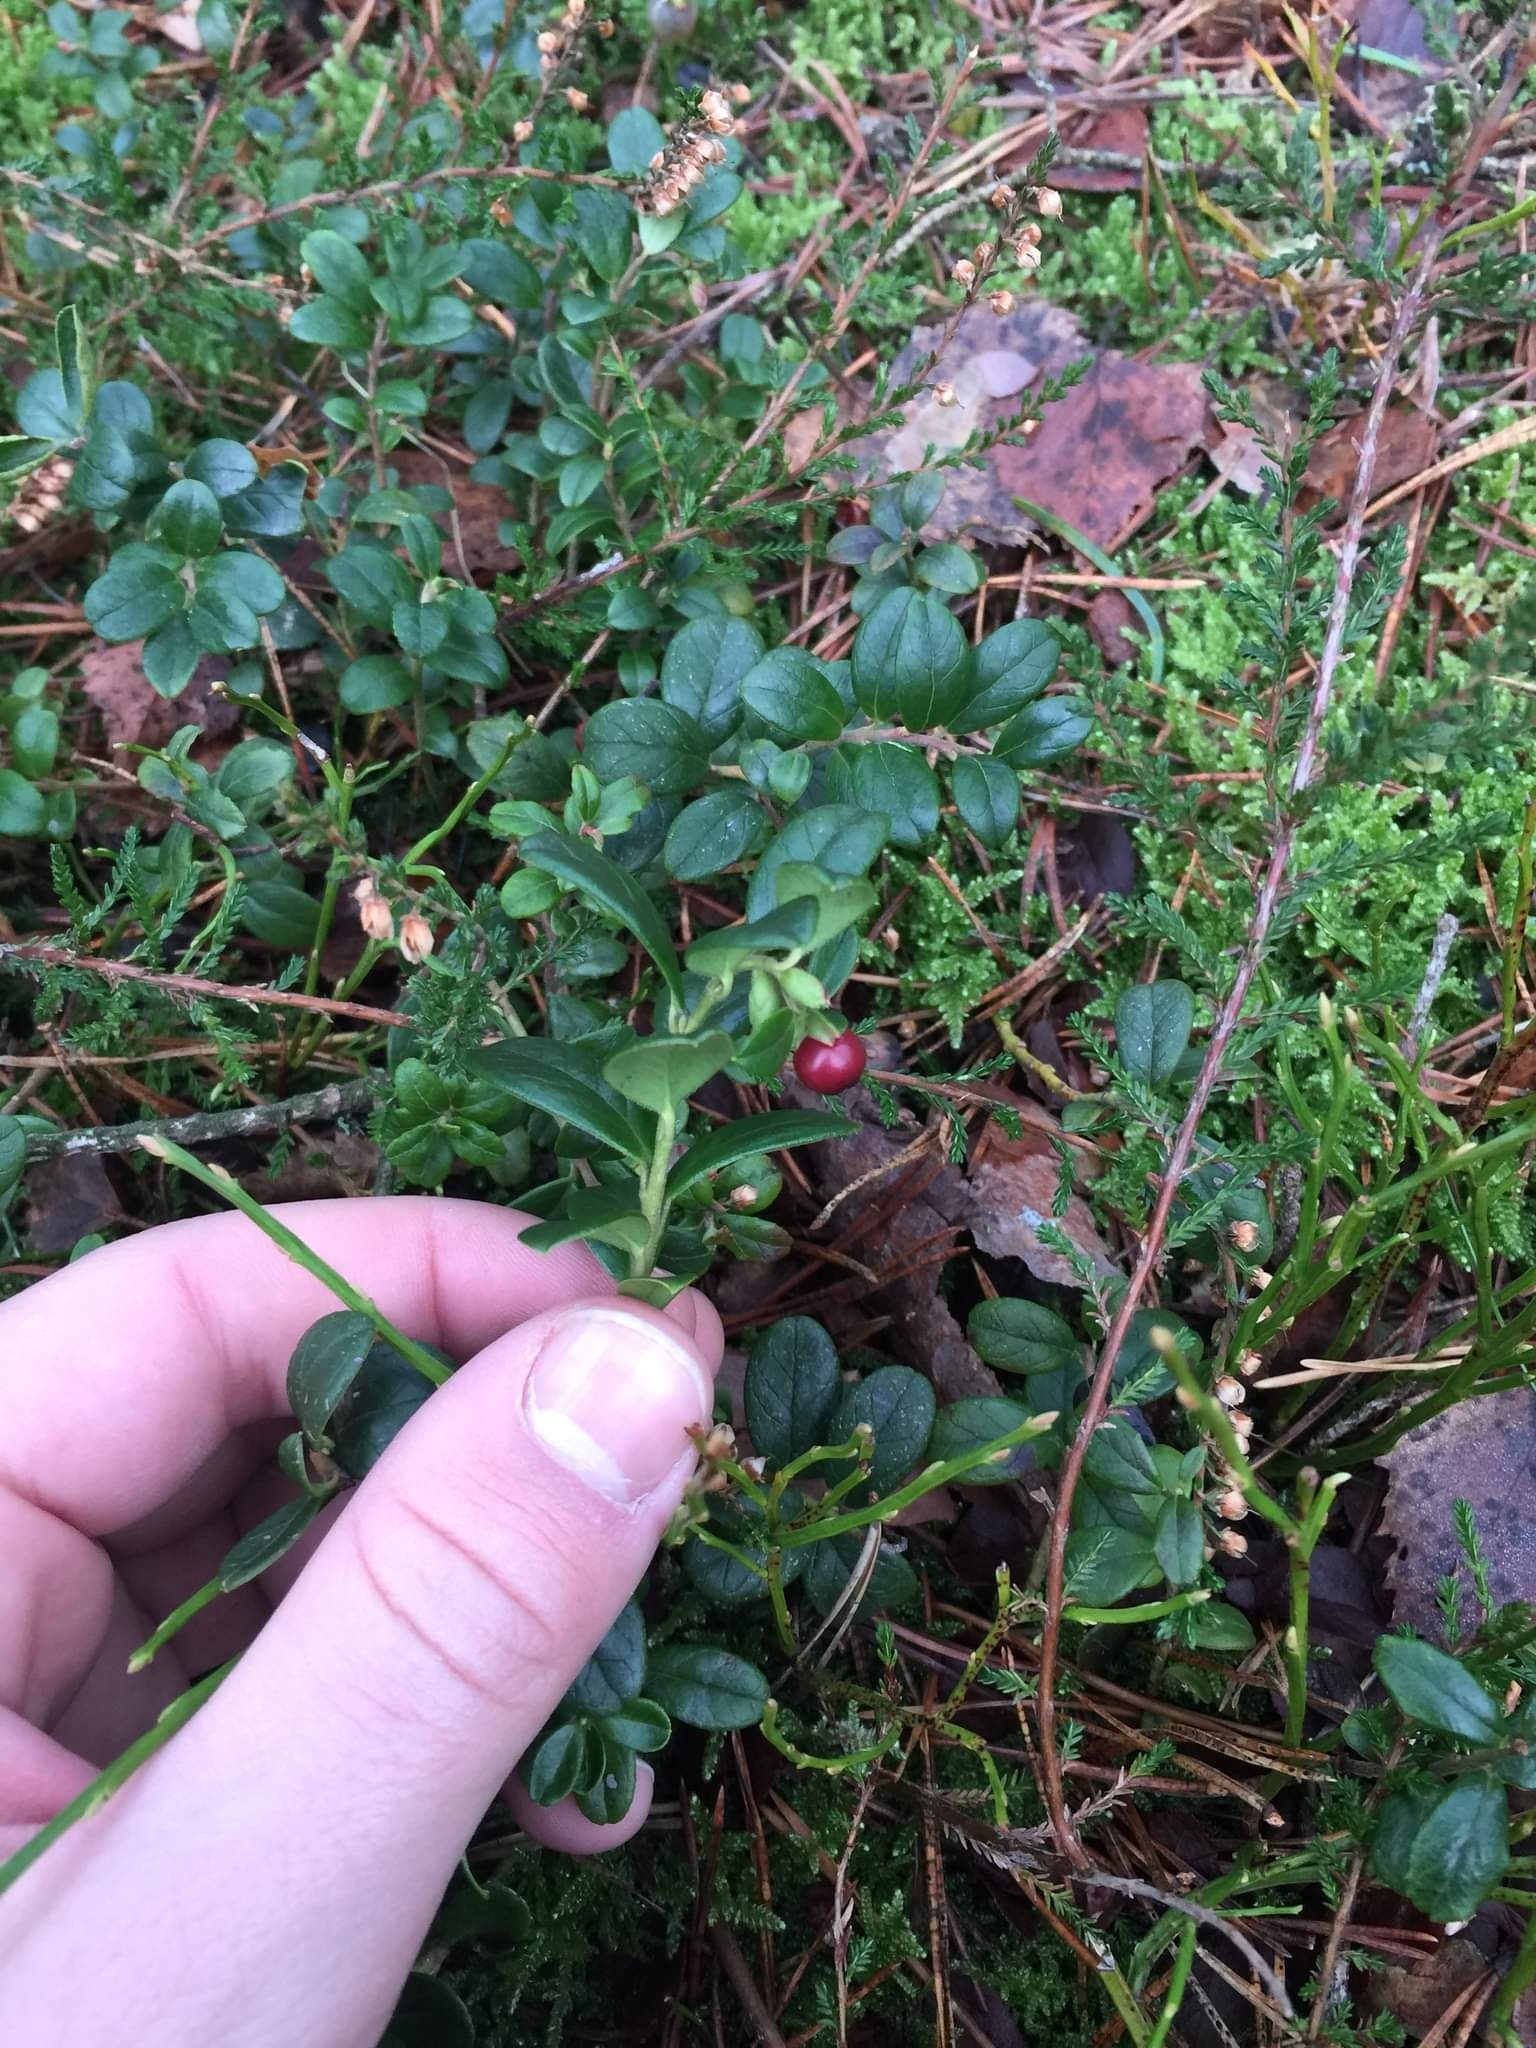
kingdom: Plantae
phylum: Tracheophyta
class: Magnoliopsida
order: Ericales
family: Ericaceae
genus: Vaccinium
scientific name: Vaccinium vitis-idaea
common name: Cowberry
